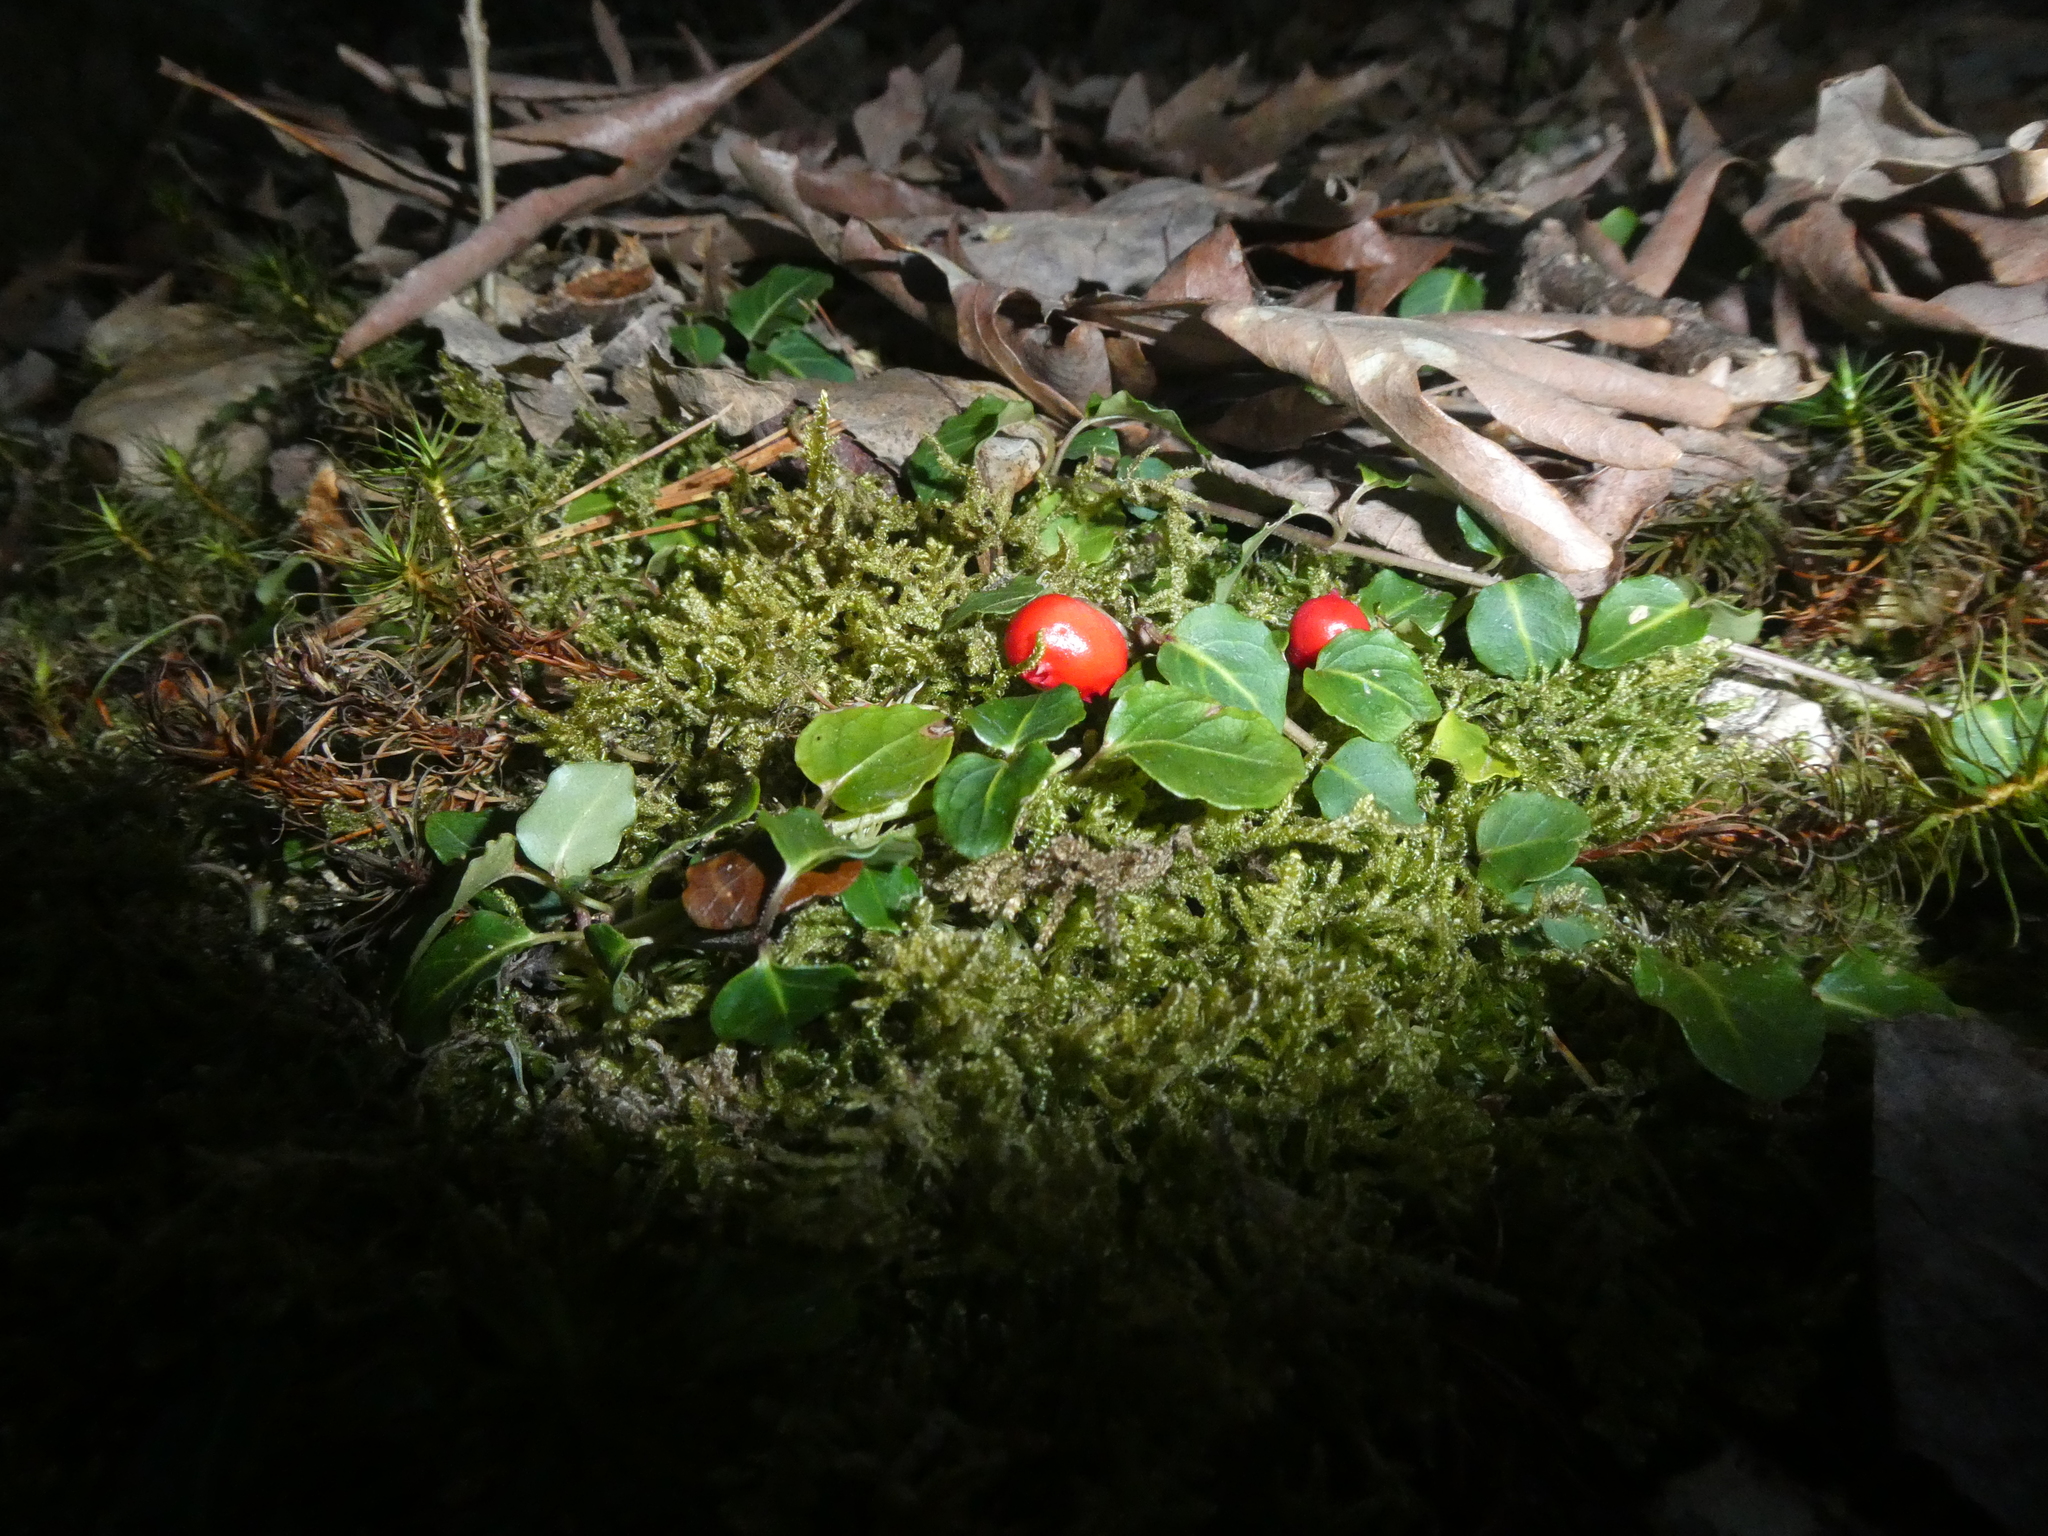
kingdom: Plantae
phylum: Tracheophyta
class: Magnoliopsida
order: Gentianales
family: Rubiaceae
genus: Mitchella
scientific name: Mitchella repens
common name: Partridge-berry
